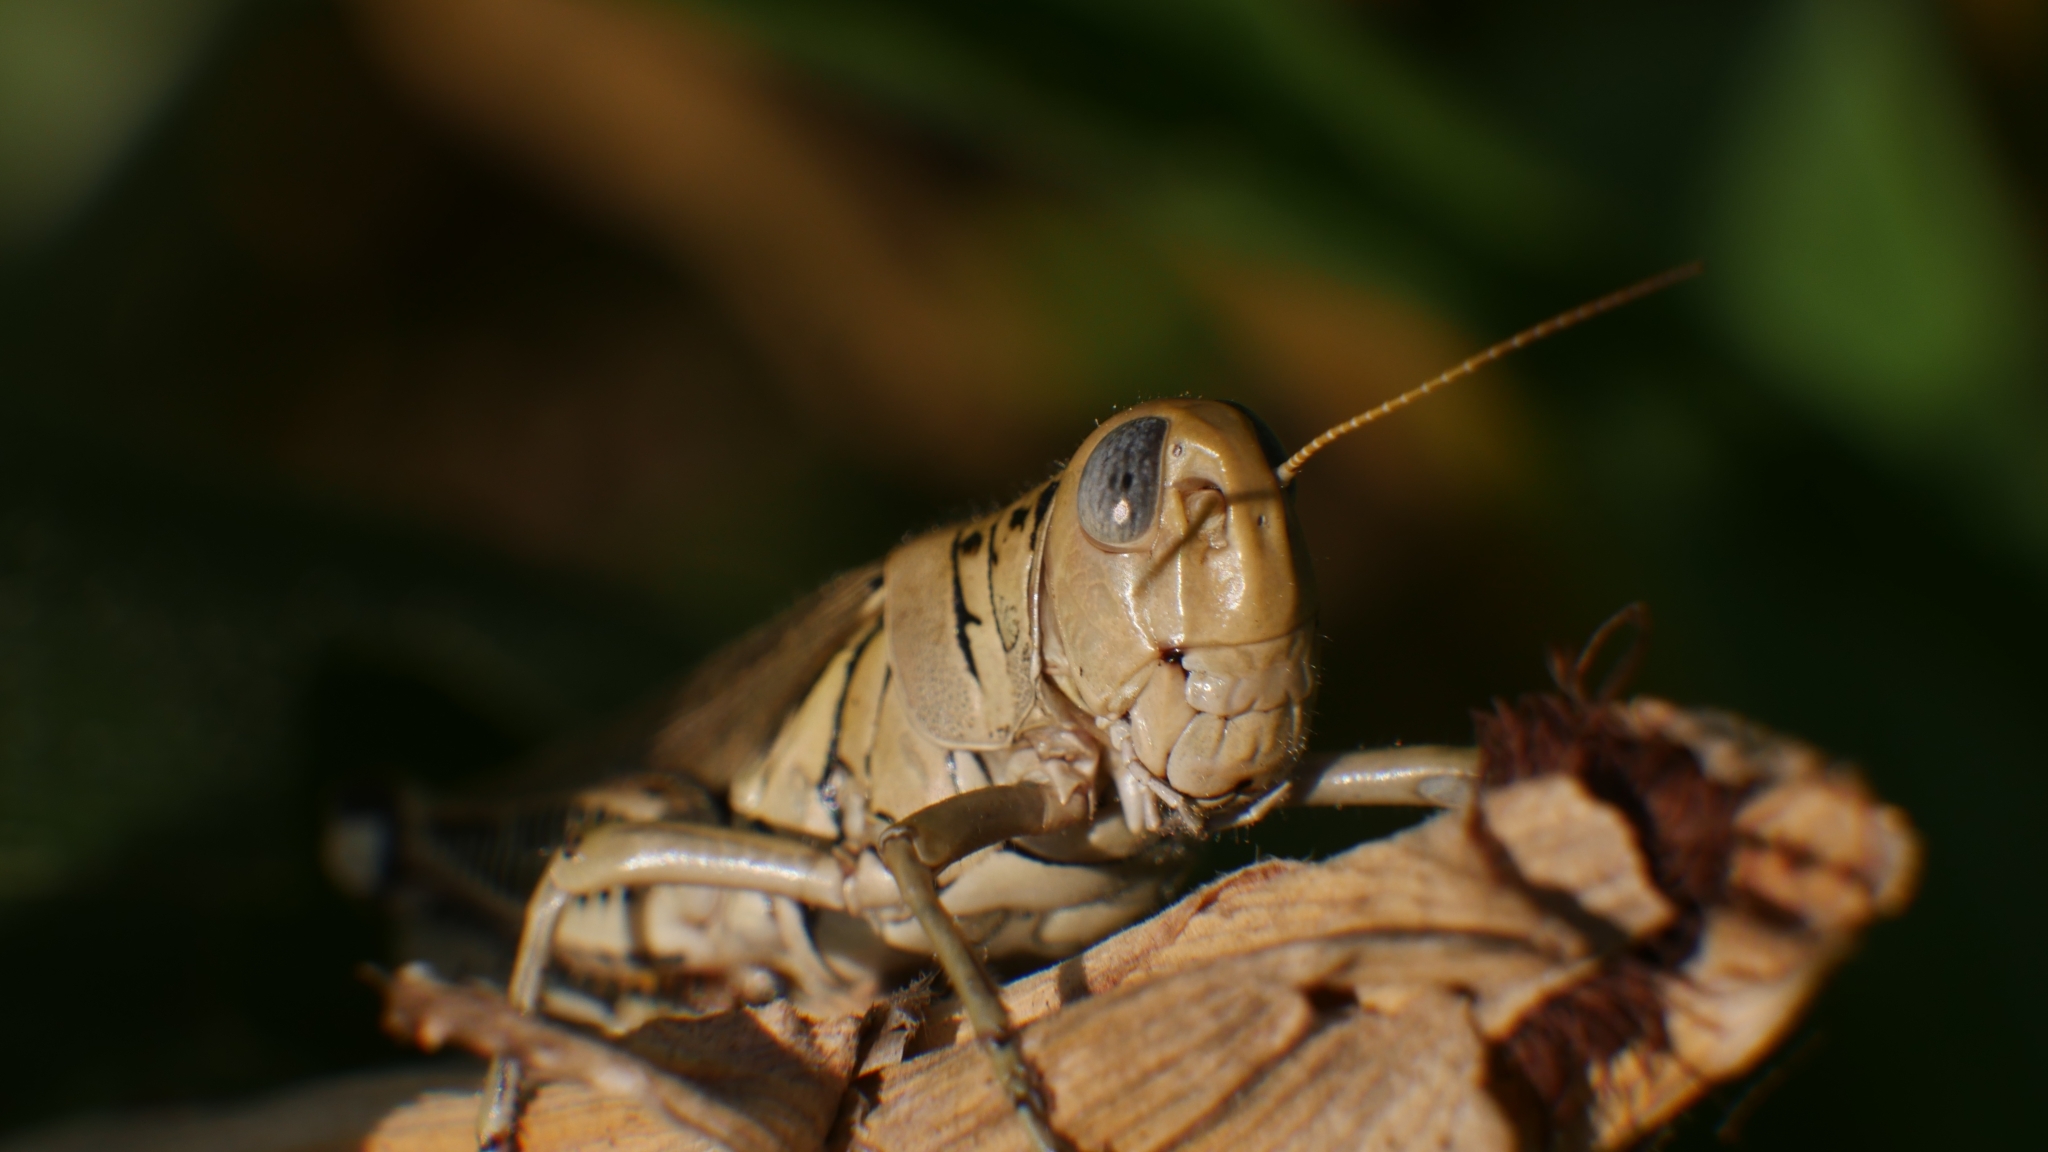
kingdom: Animalia
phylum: Arthropoda
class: Insecta
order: Orthoptera
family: Acrididae
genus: Melanoplus
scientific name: Melanoplus differentialis
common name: Differential grasshopper
